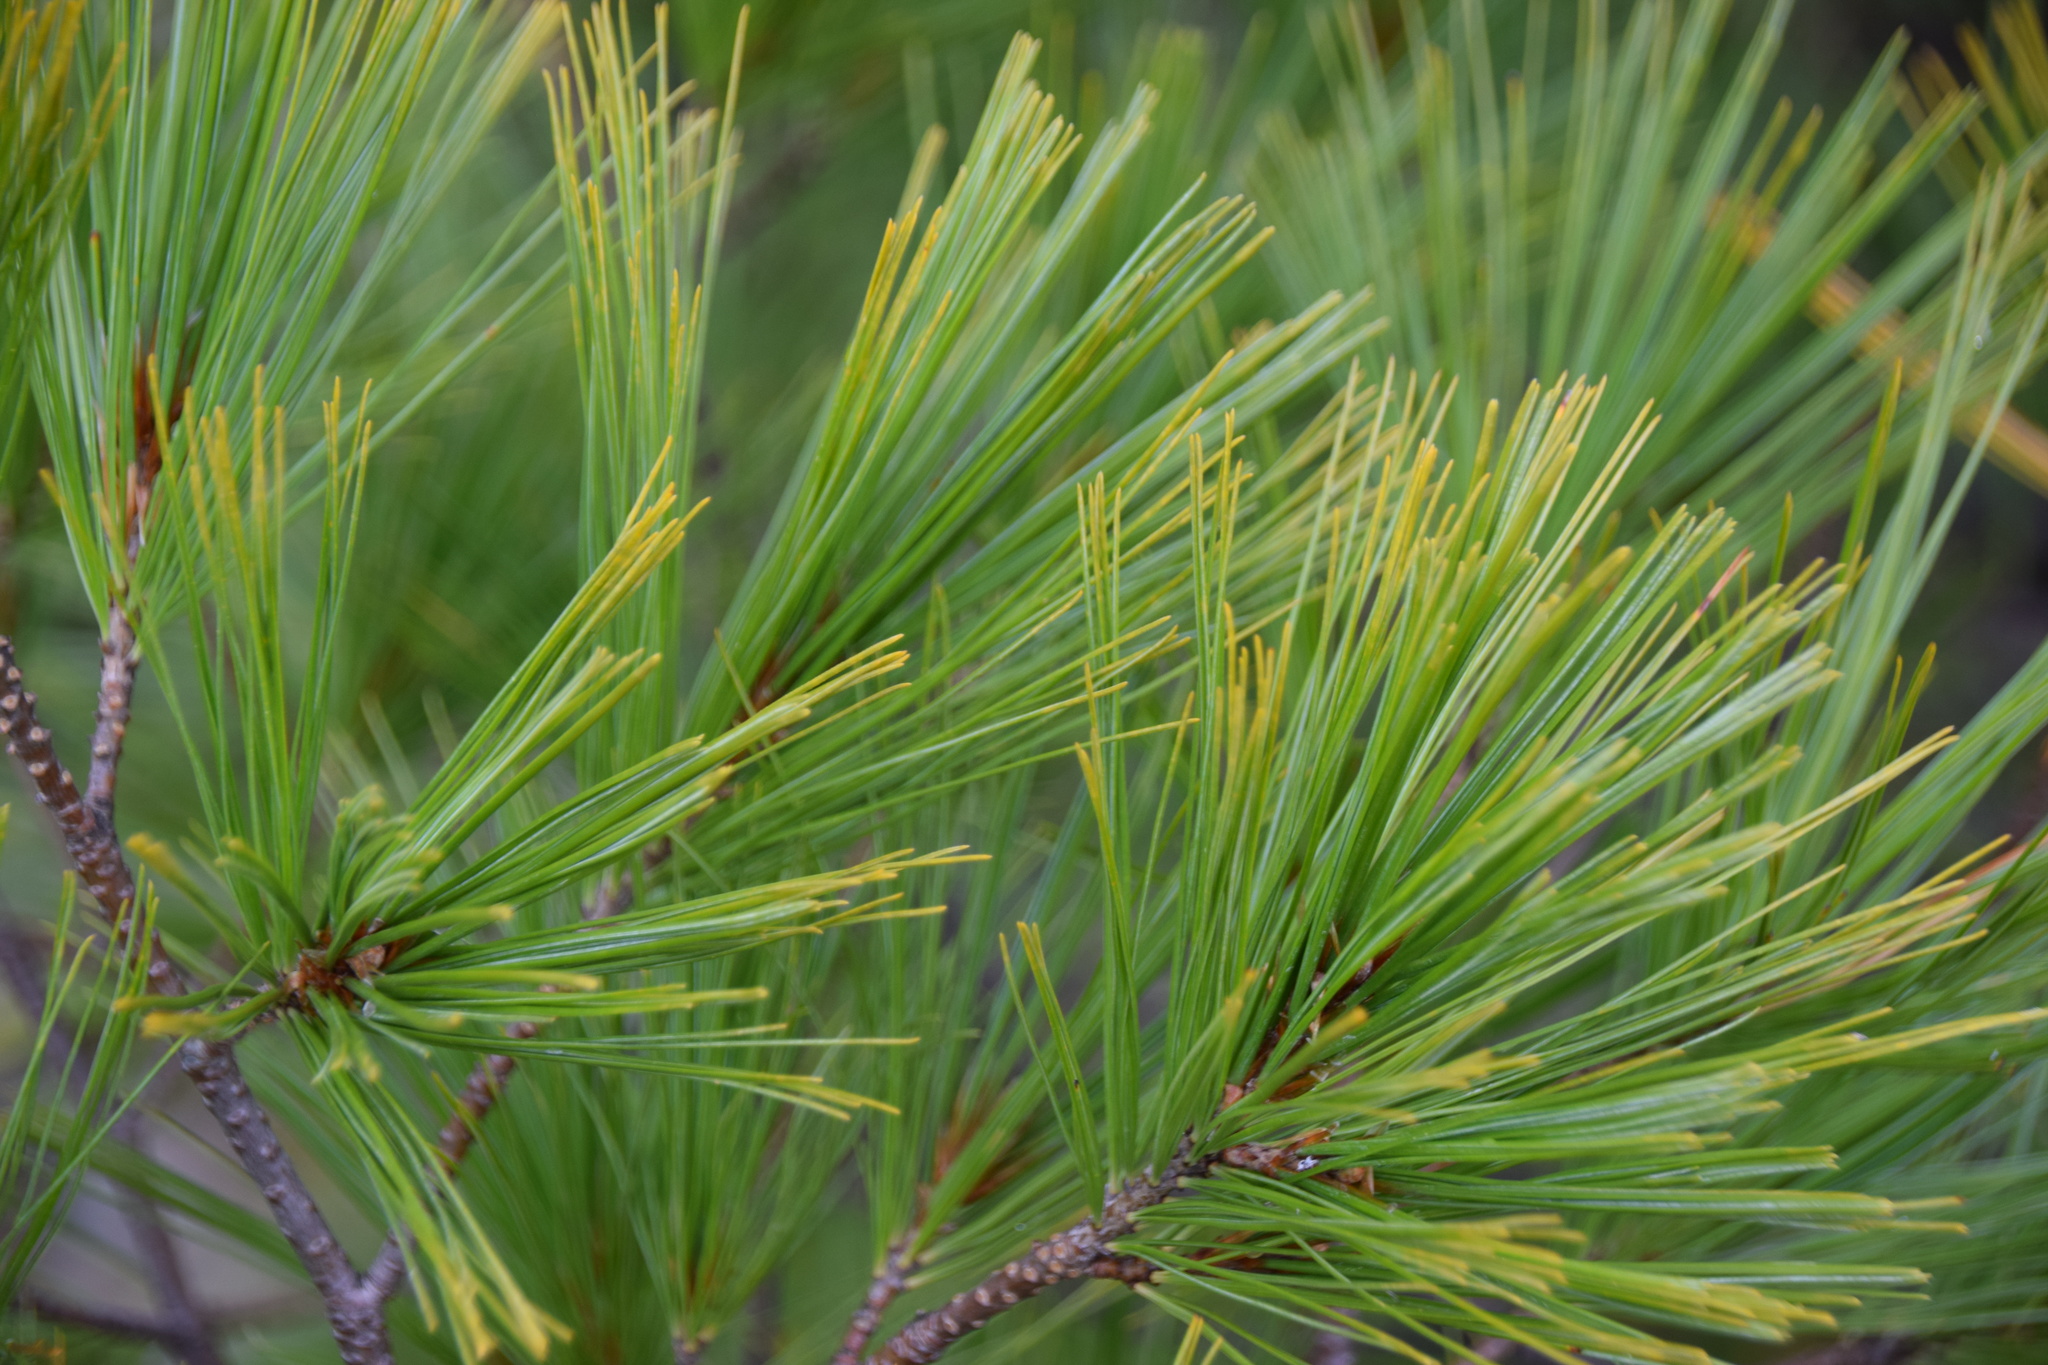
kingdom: Plantae
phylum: Tracheophyta
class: Pinopsida
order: Pinales
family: Pinaceae
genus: Pinus
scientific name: Pinus strobus
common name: Weymouth pine
